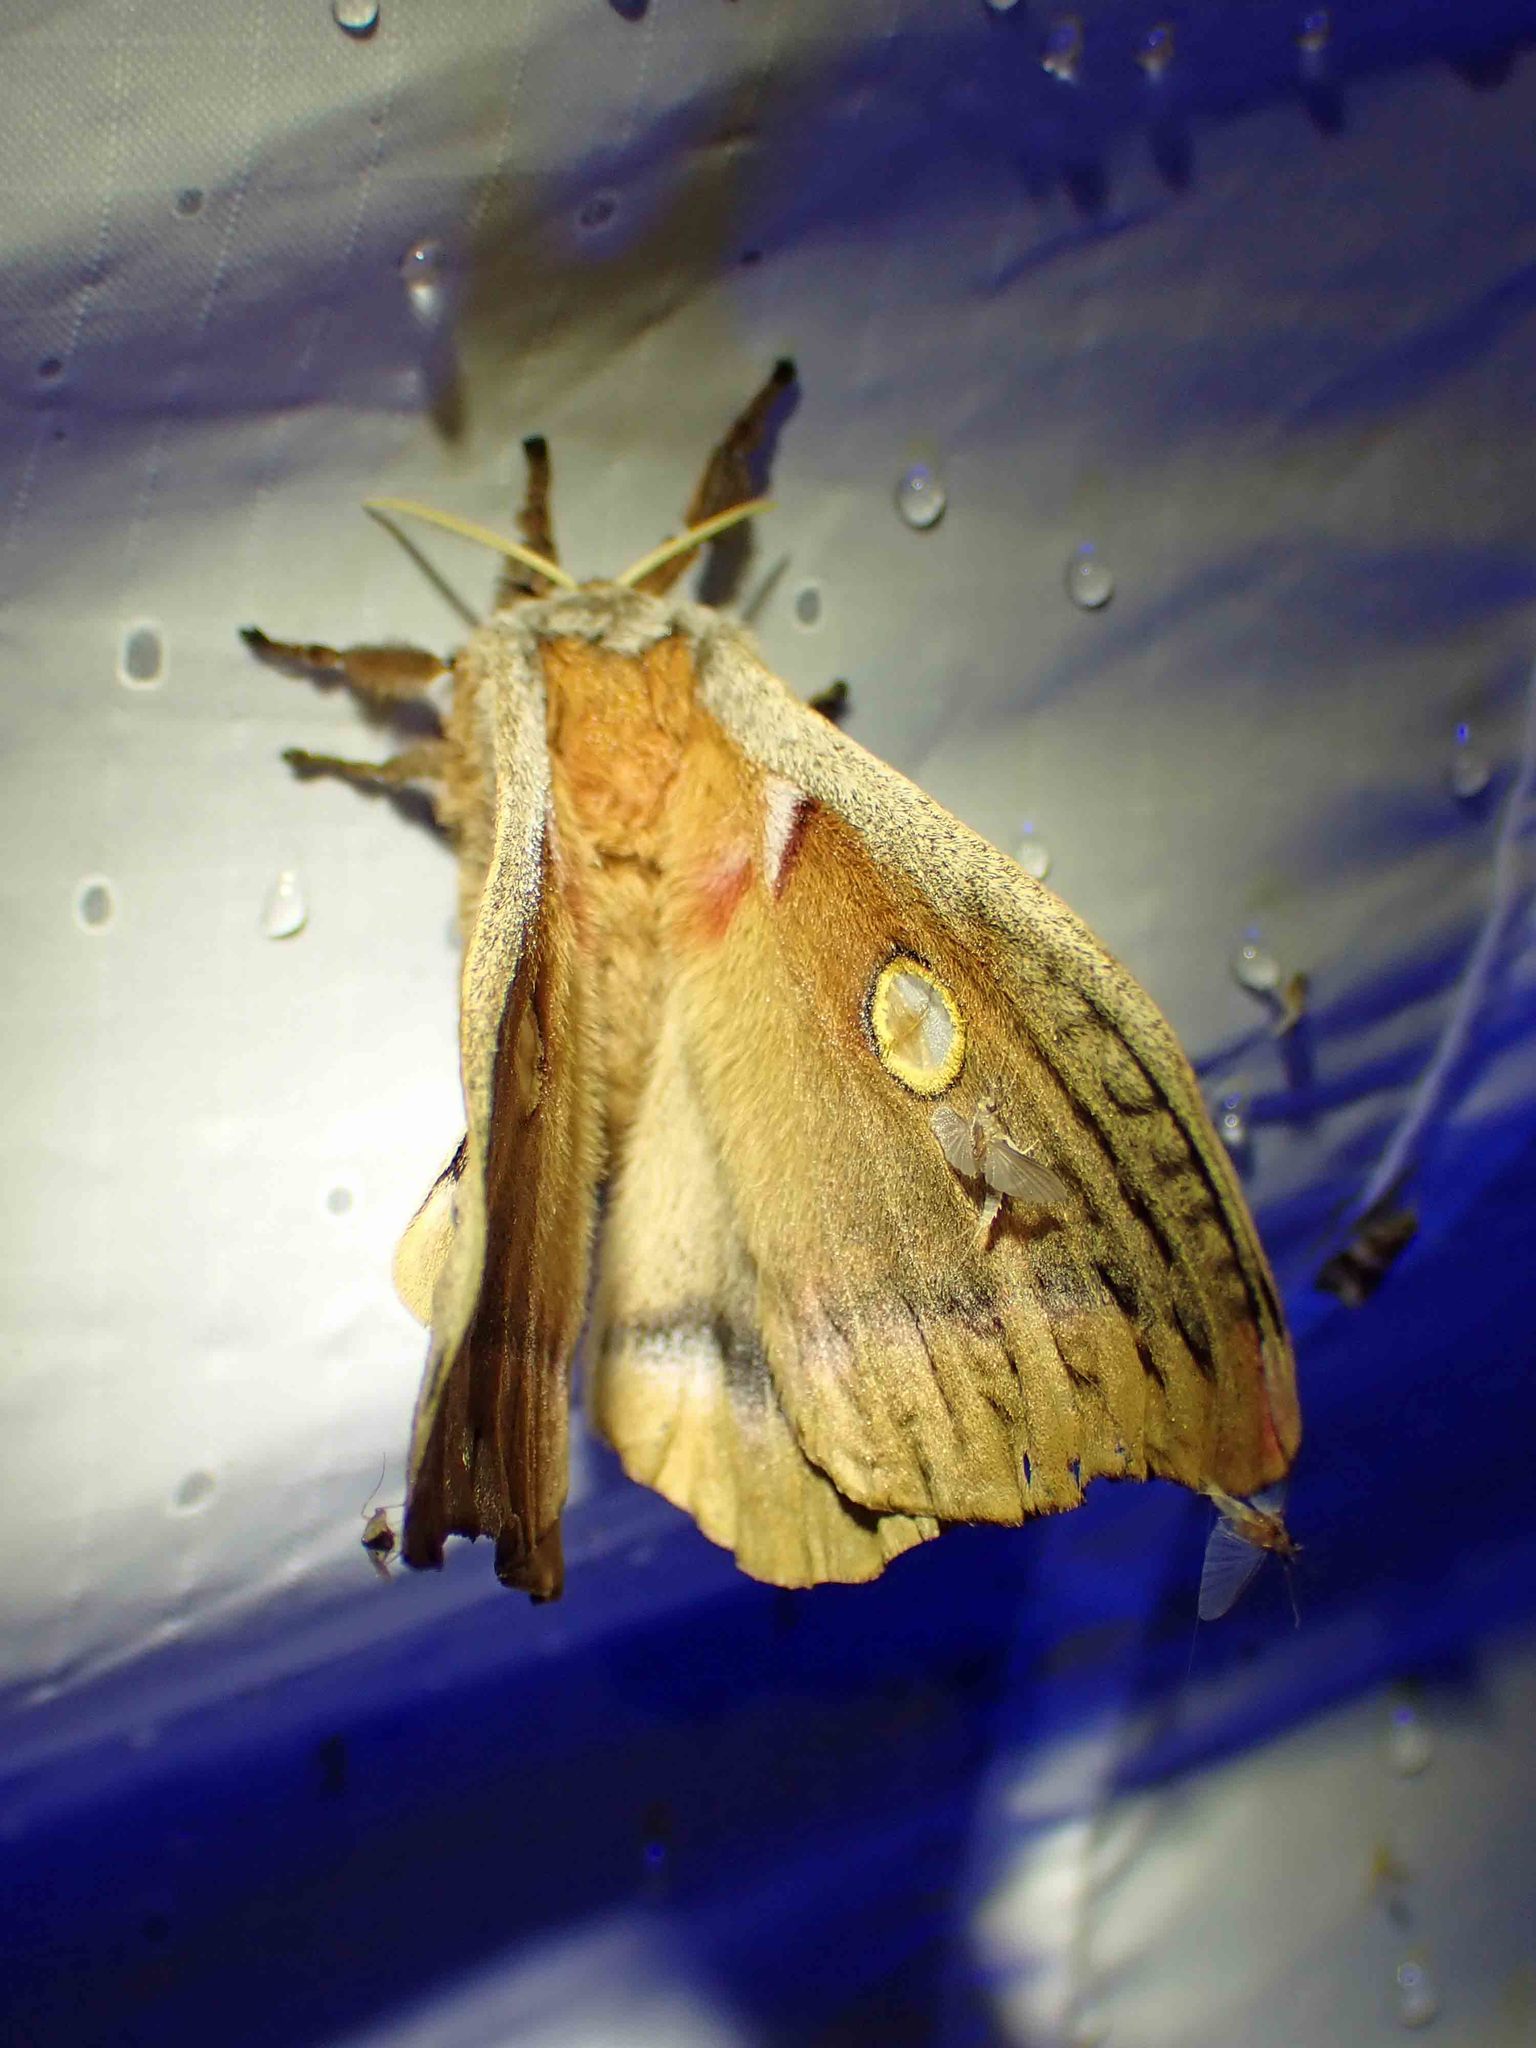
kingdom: Animalia
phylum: Arthropoda
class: Insecta
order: Lepidoptera
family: Saturniidae
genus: Antheraea
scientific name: Antheraea polyphemus
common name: Polyphemus moth
